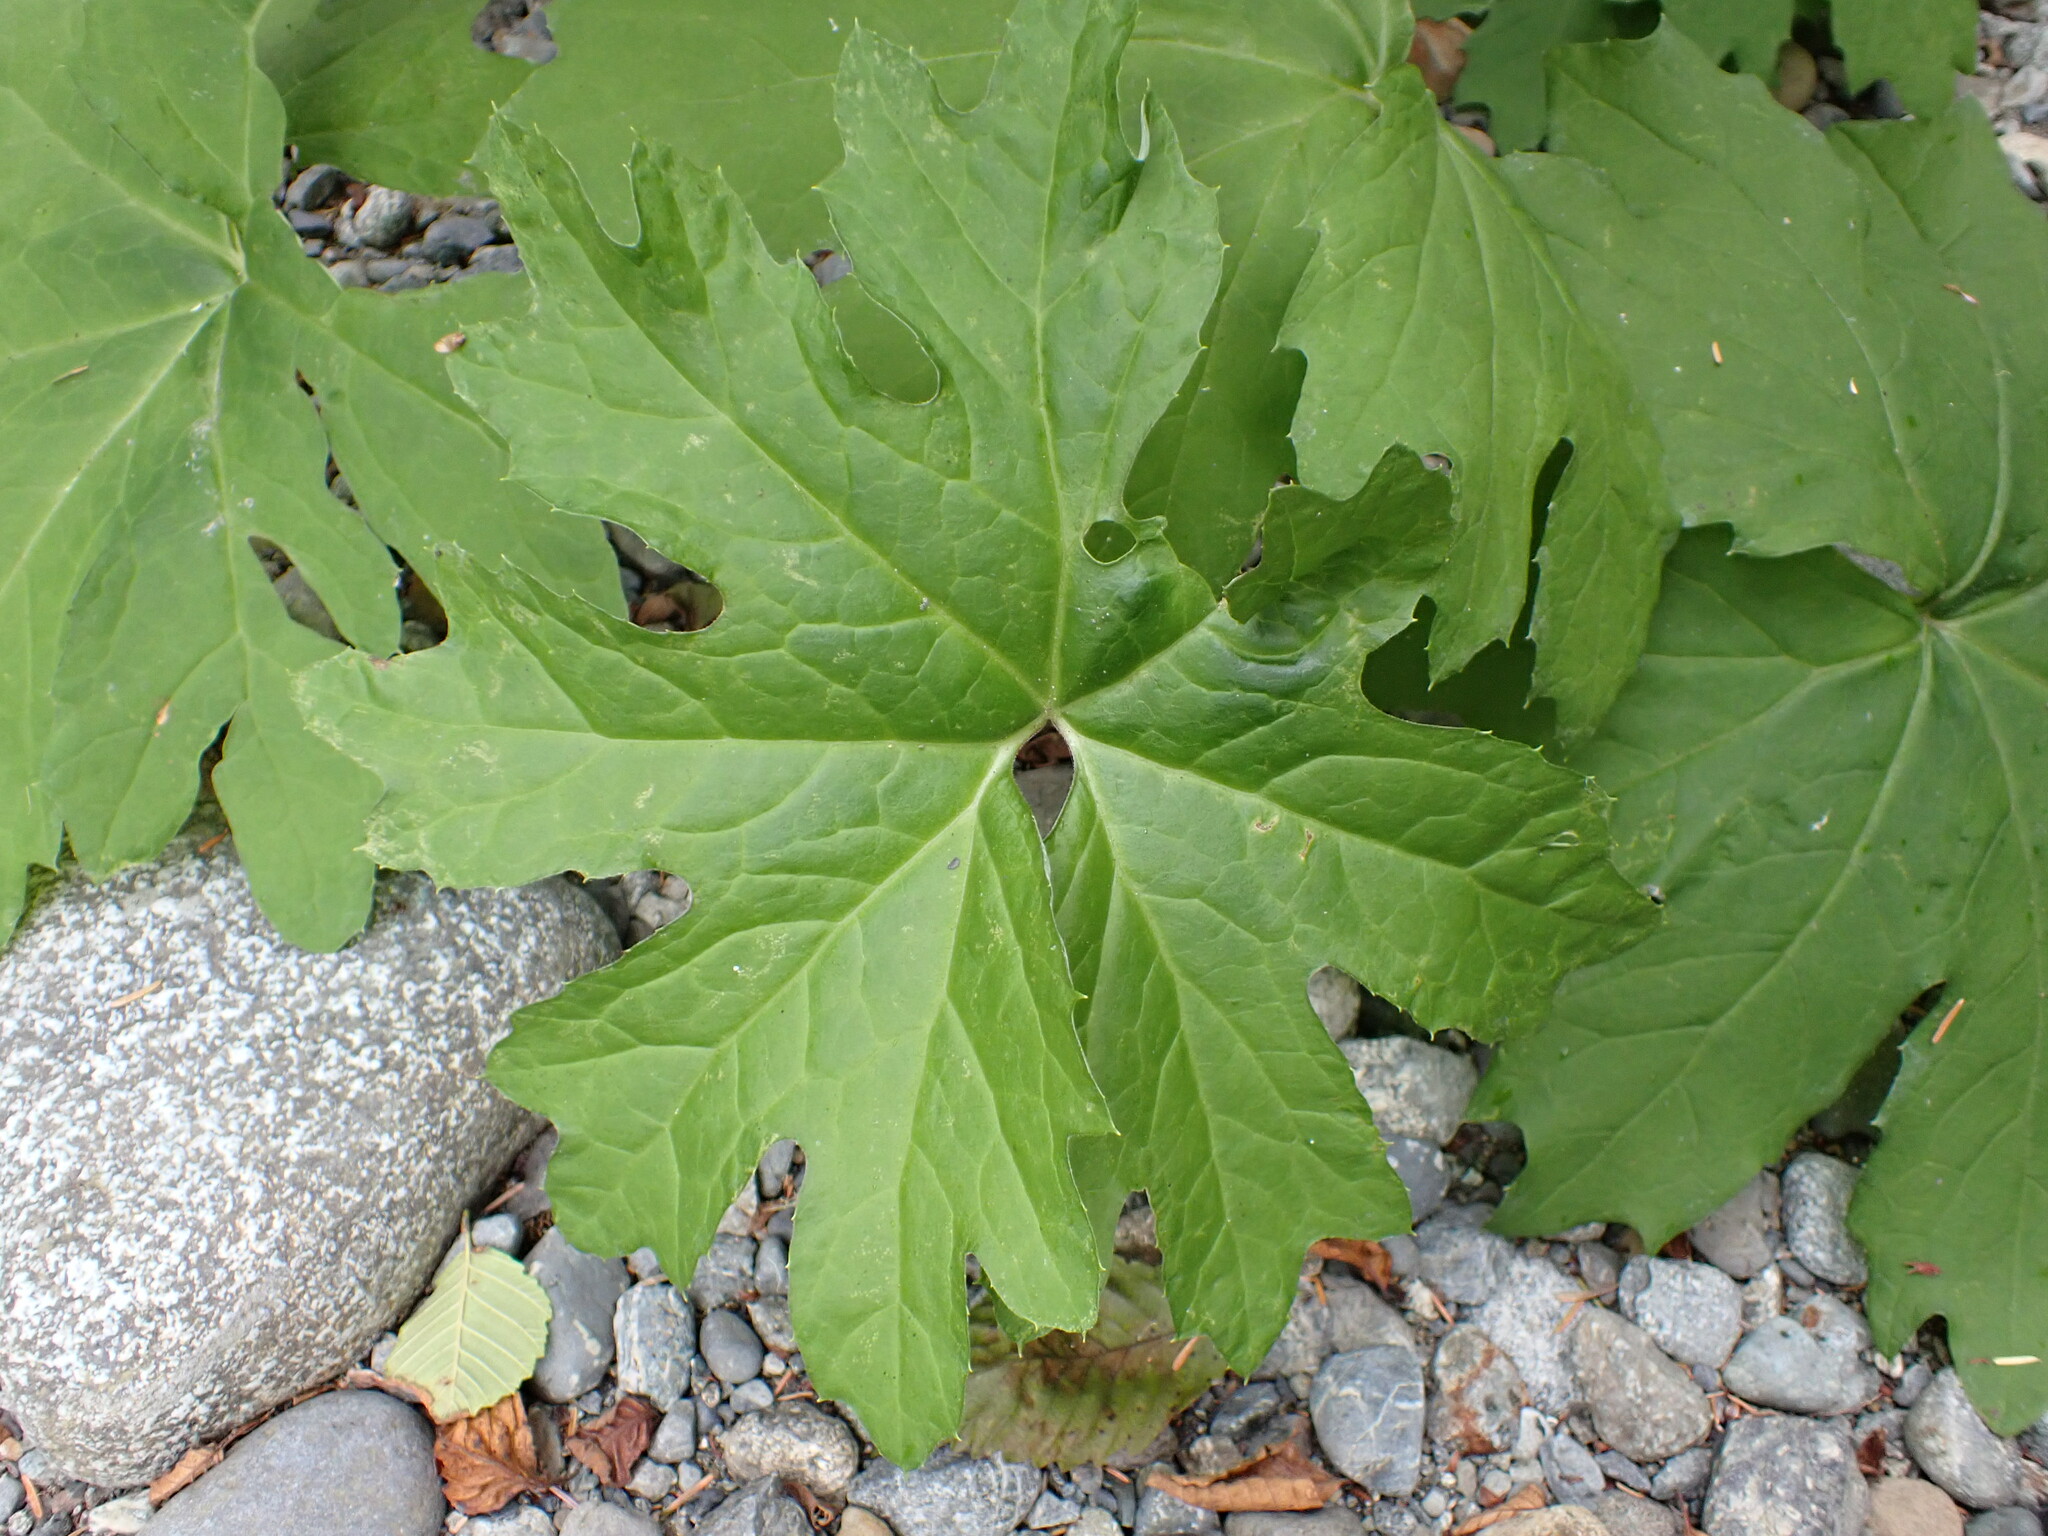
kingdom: Plantae
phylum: Tracheophyta
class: Magnoliopsida
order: Asterales
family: Asteraceae
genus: Petasites
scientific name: Petasites frigidus
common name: Arctic butterbur
